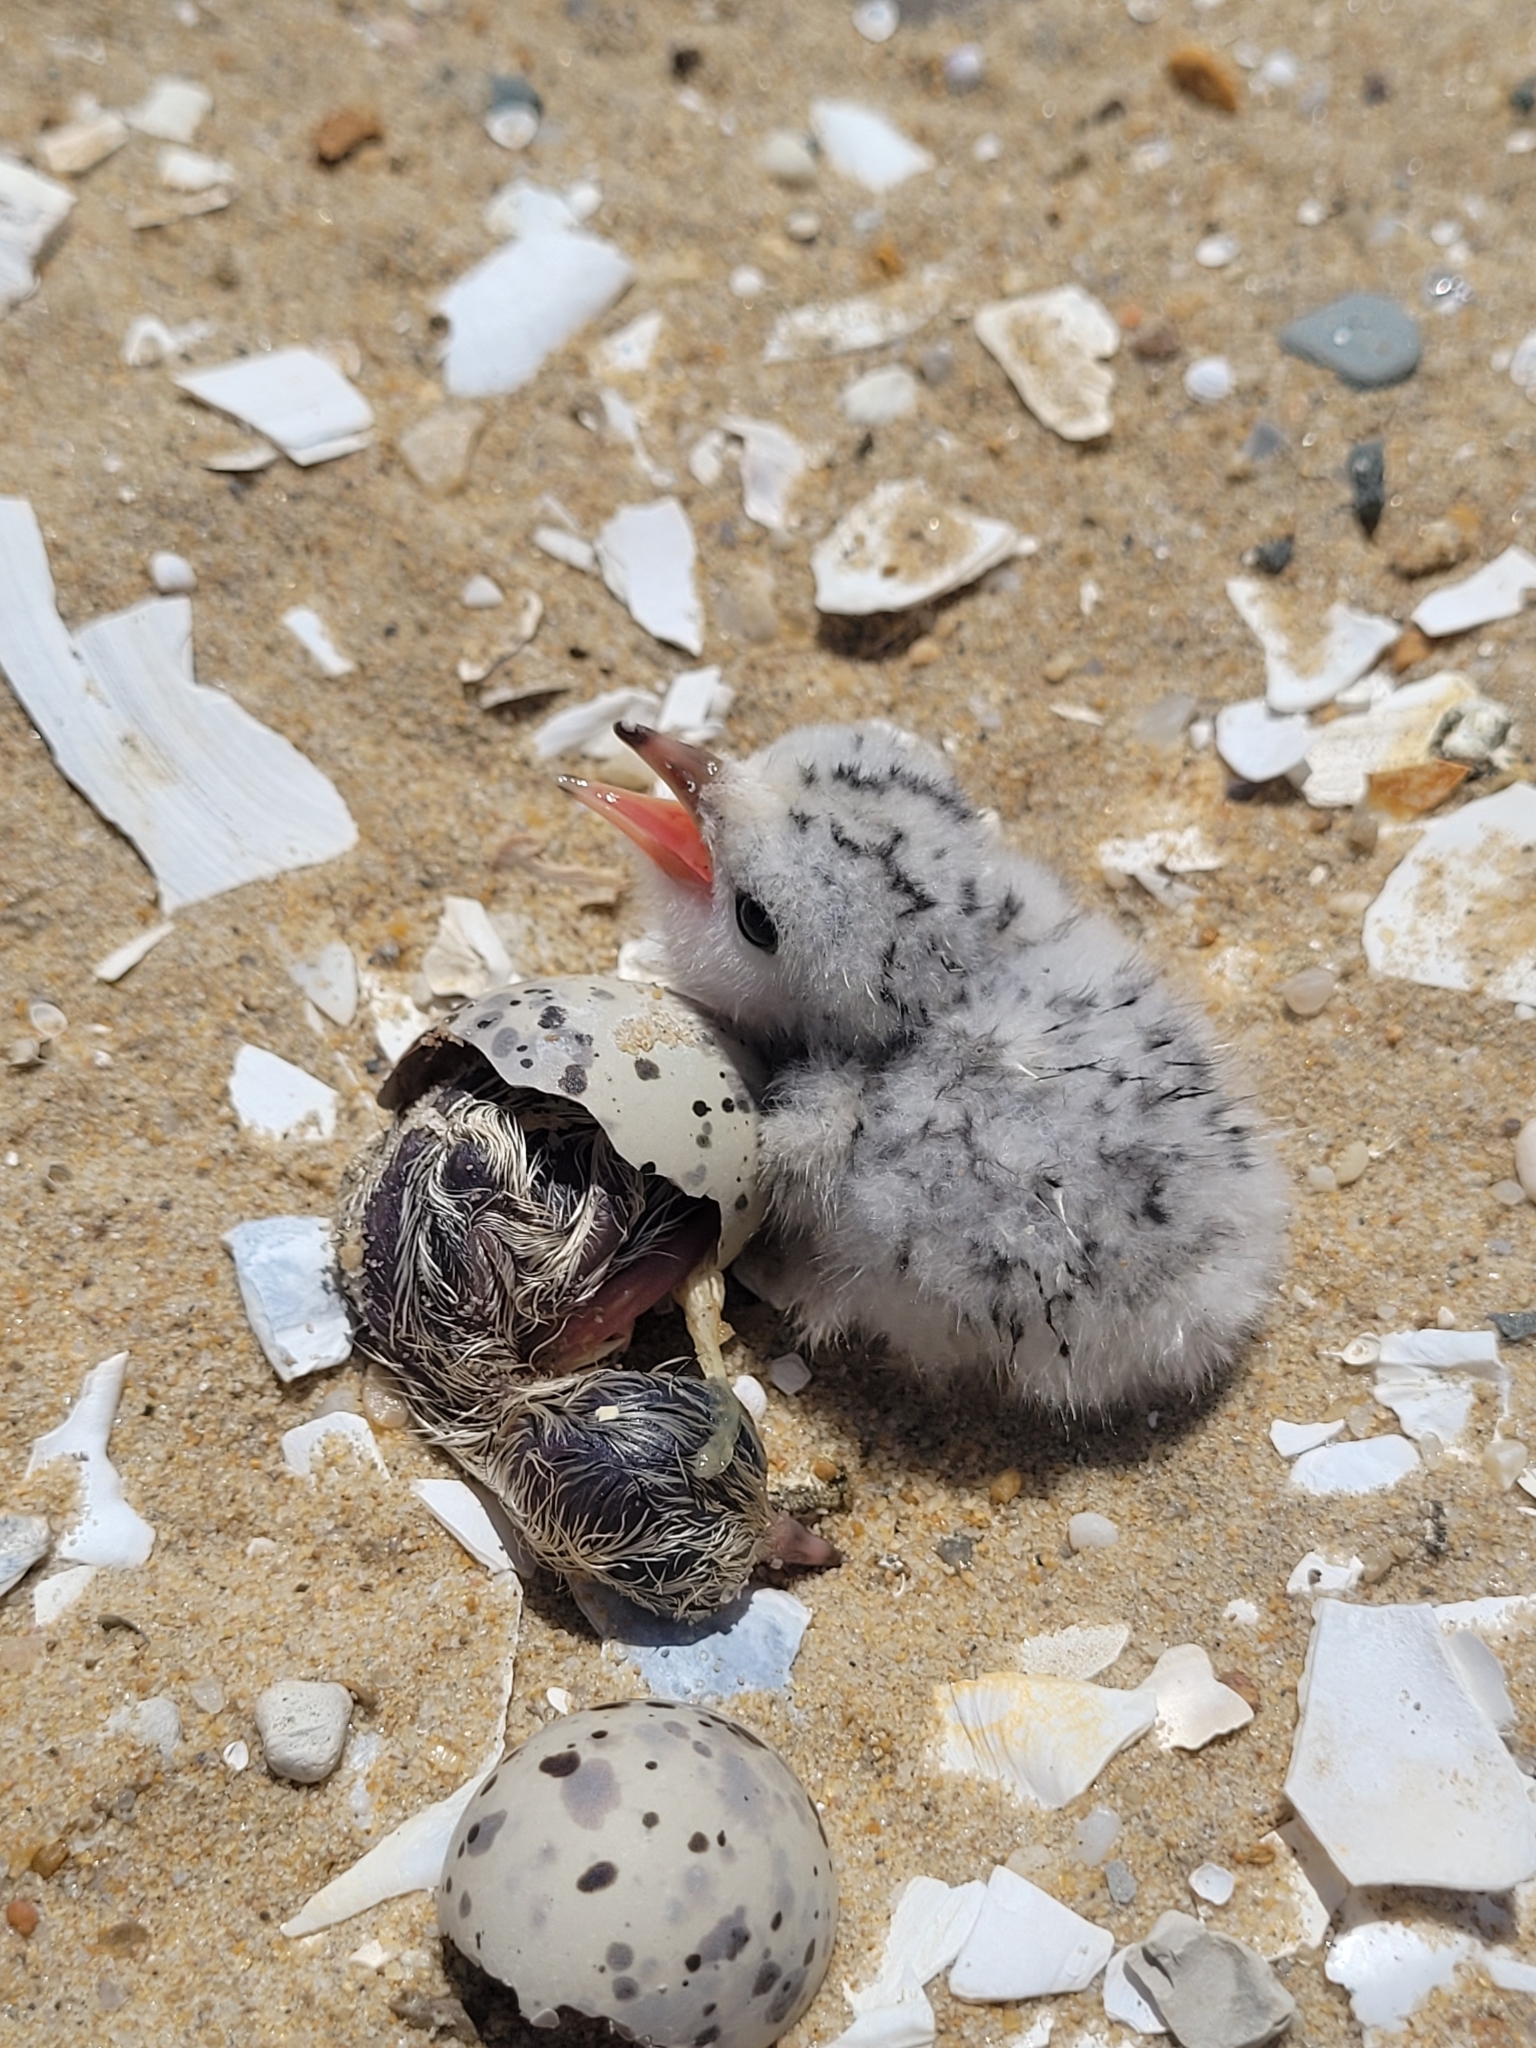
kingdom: Animalia
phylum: Chordata
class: Aves
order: Charadriiformes
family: Laridae
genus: Sternula
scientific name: Sternula antillarum
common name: Least tern
